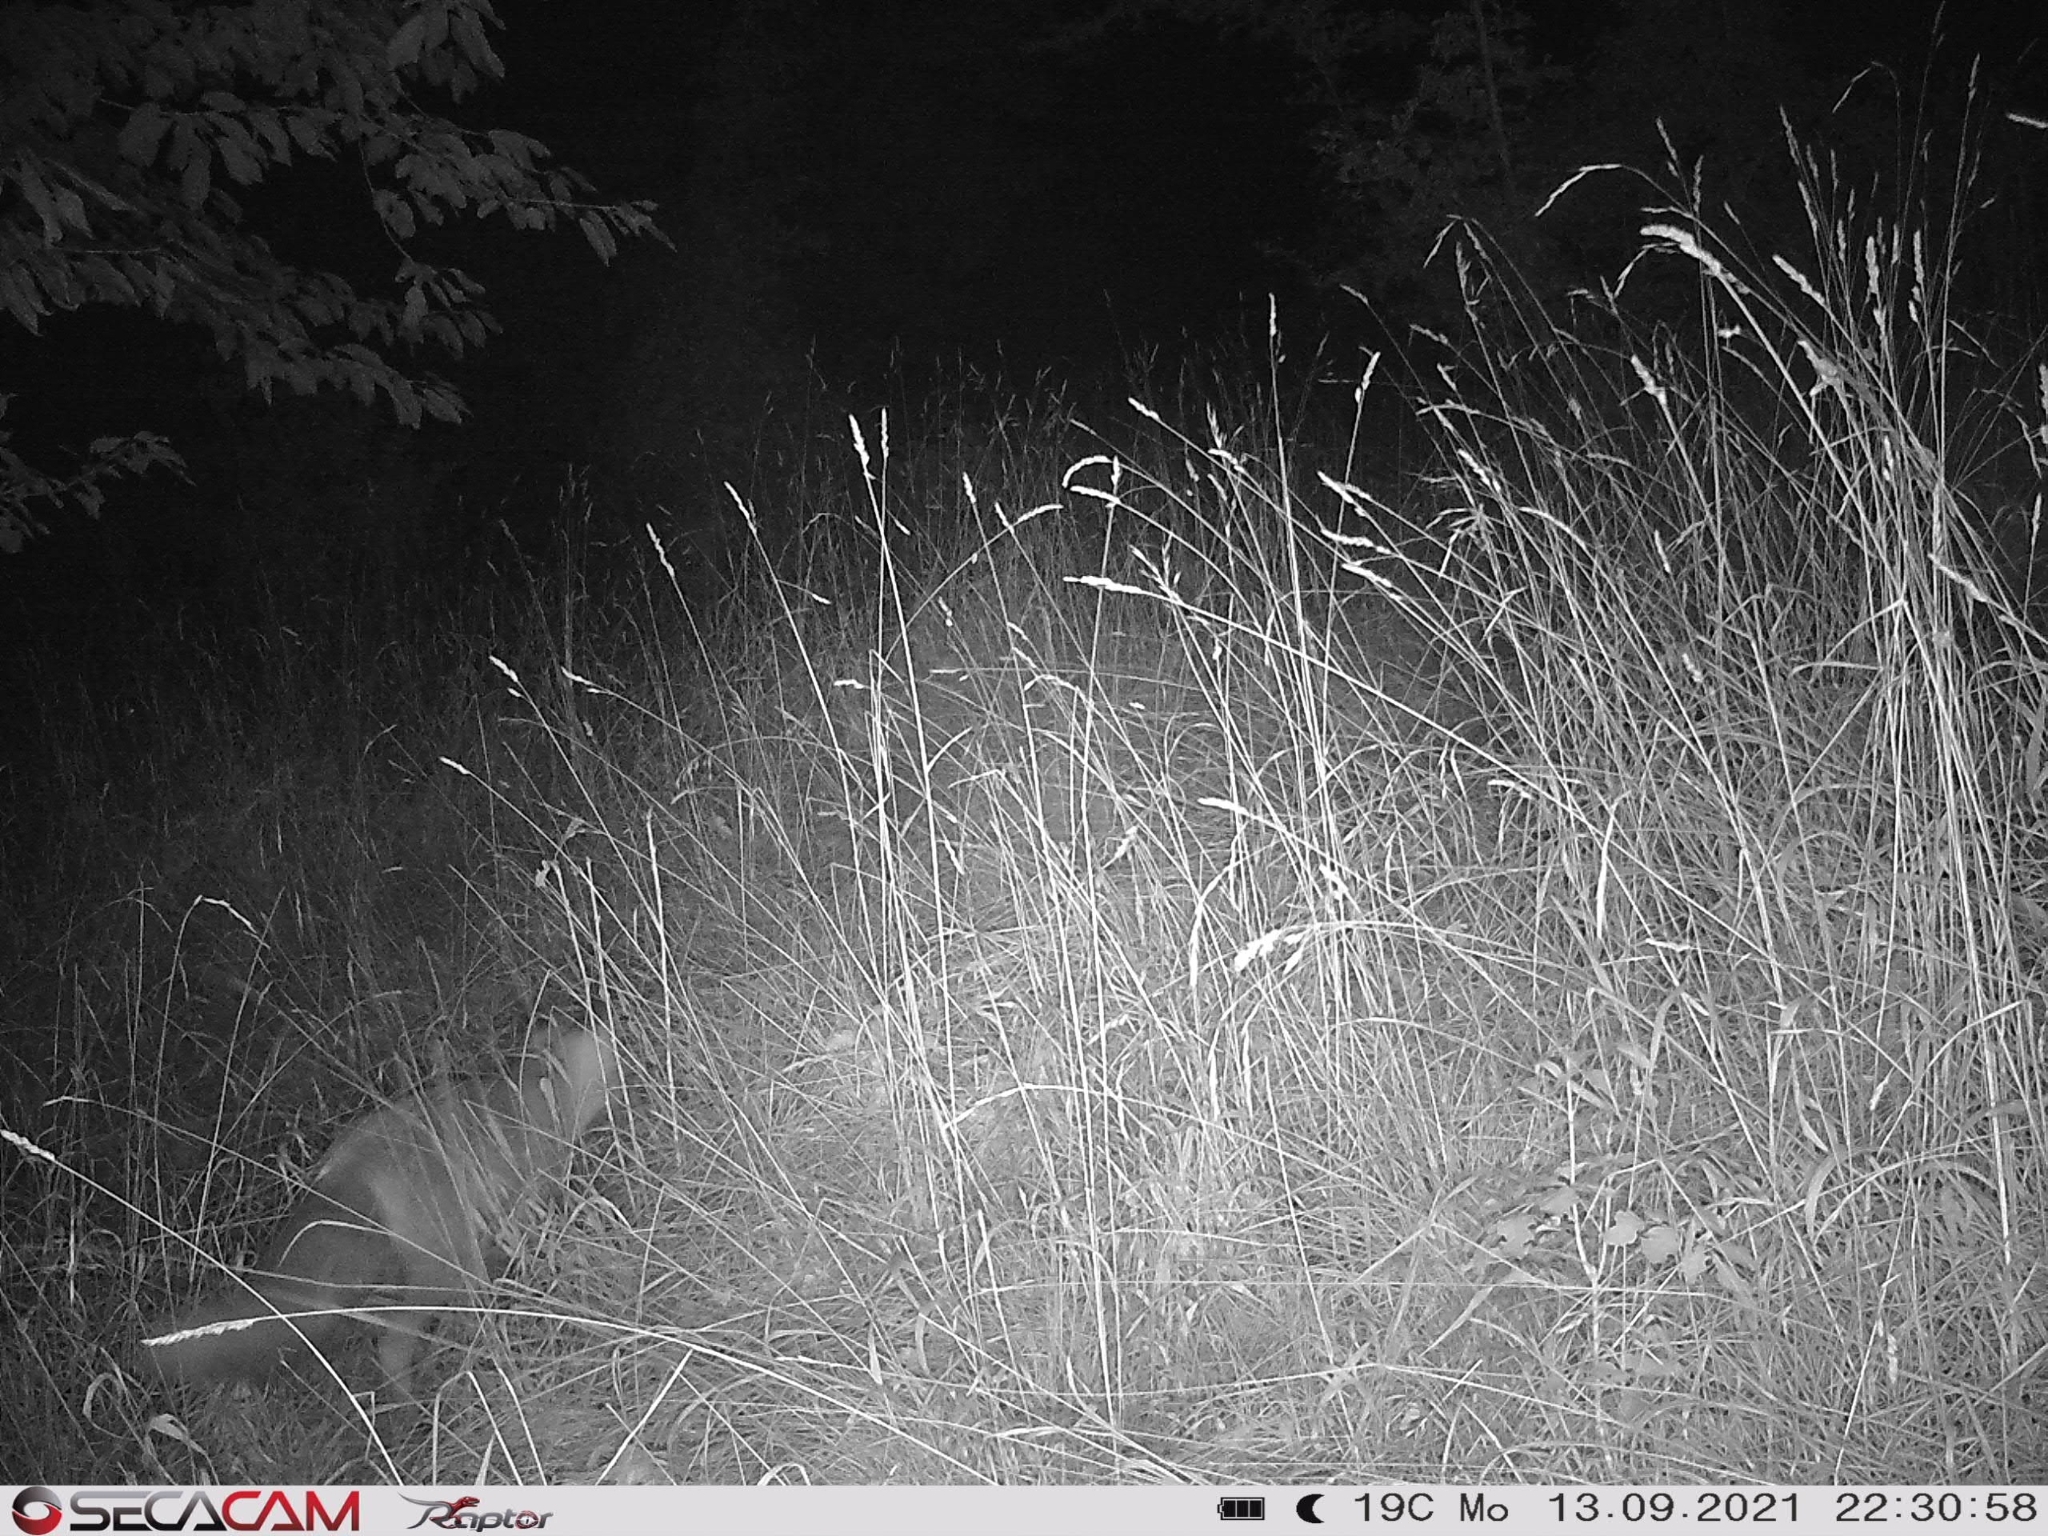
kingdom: Animalia
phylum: Chordata
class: Mammalia
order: Carnivora
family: Canidae
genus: Vulpes
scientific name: Vulpes vulpes
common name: Red fox
